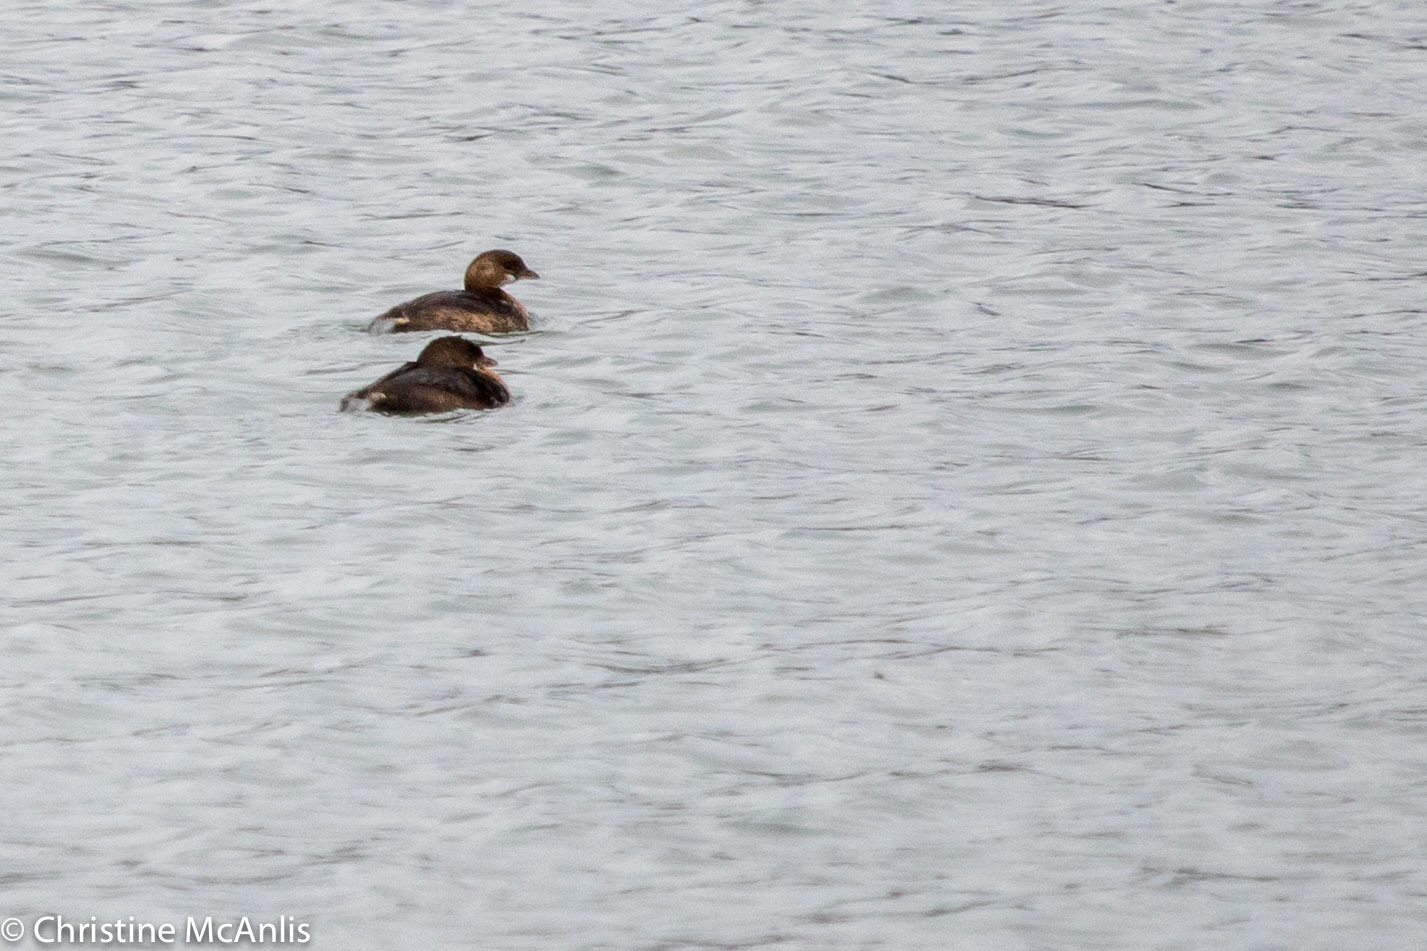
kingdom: Animalia
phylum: Chordata
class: Aves
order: Podicipediformes
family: Podicipedidae
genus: Podilymbus
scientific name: Podilymbus podiceps
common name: Pied-billed grebe
